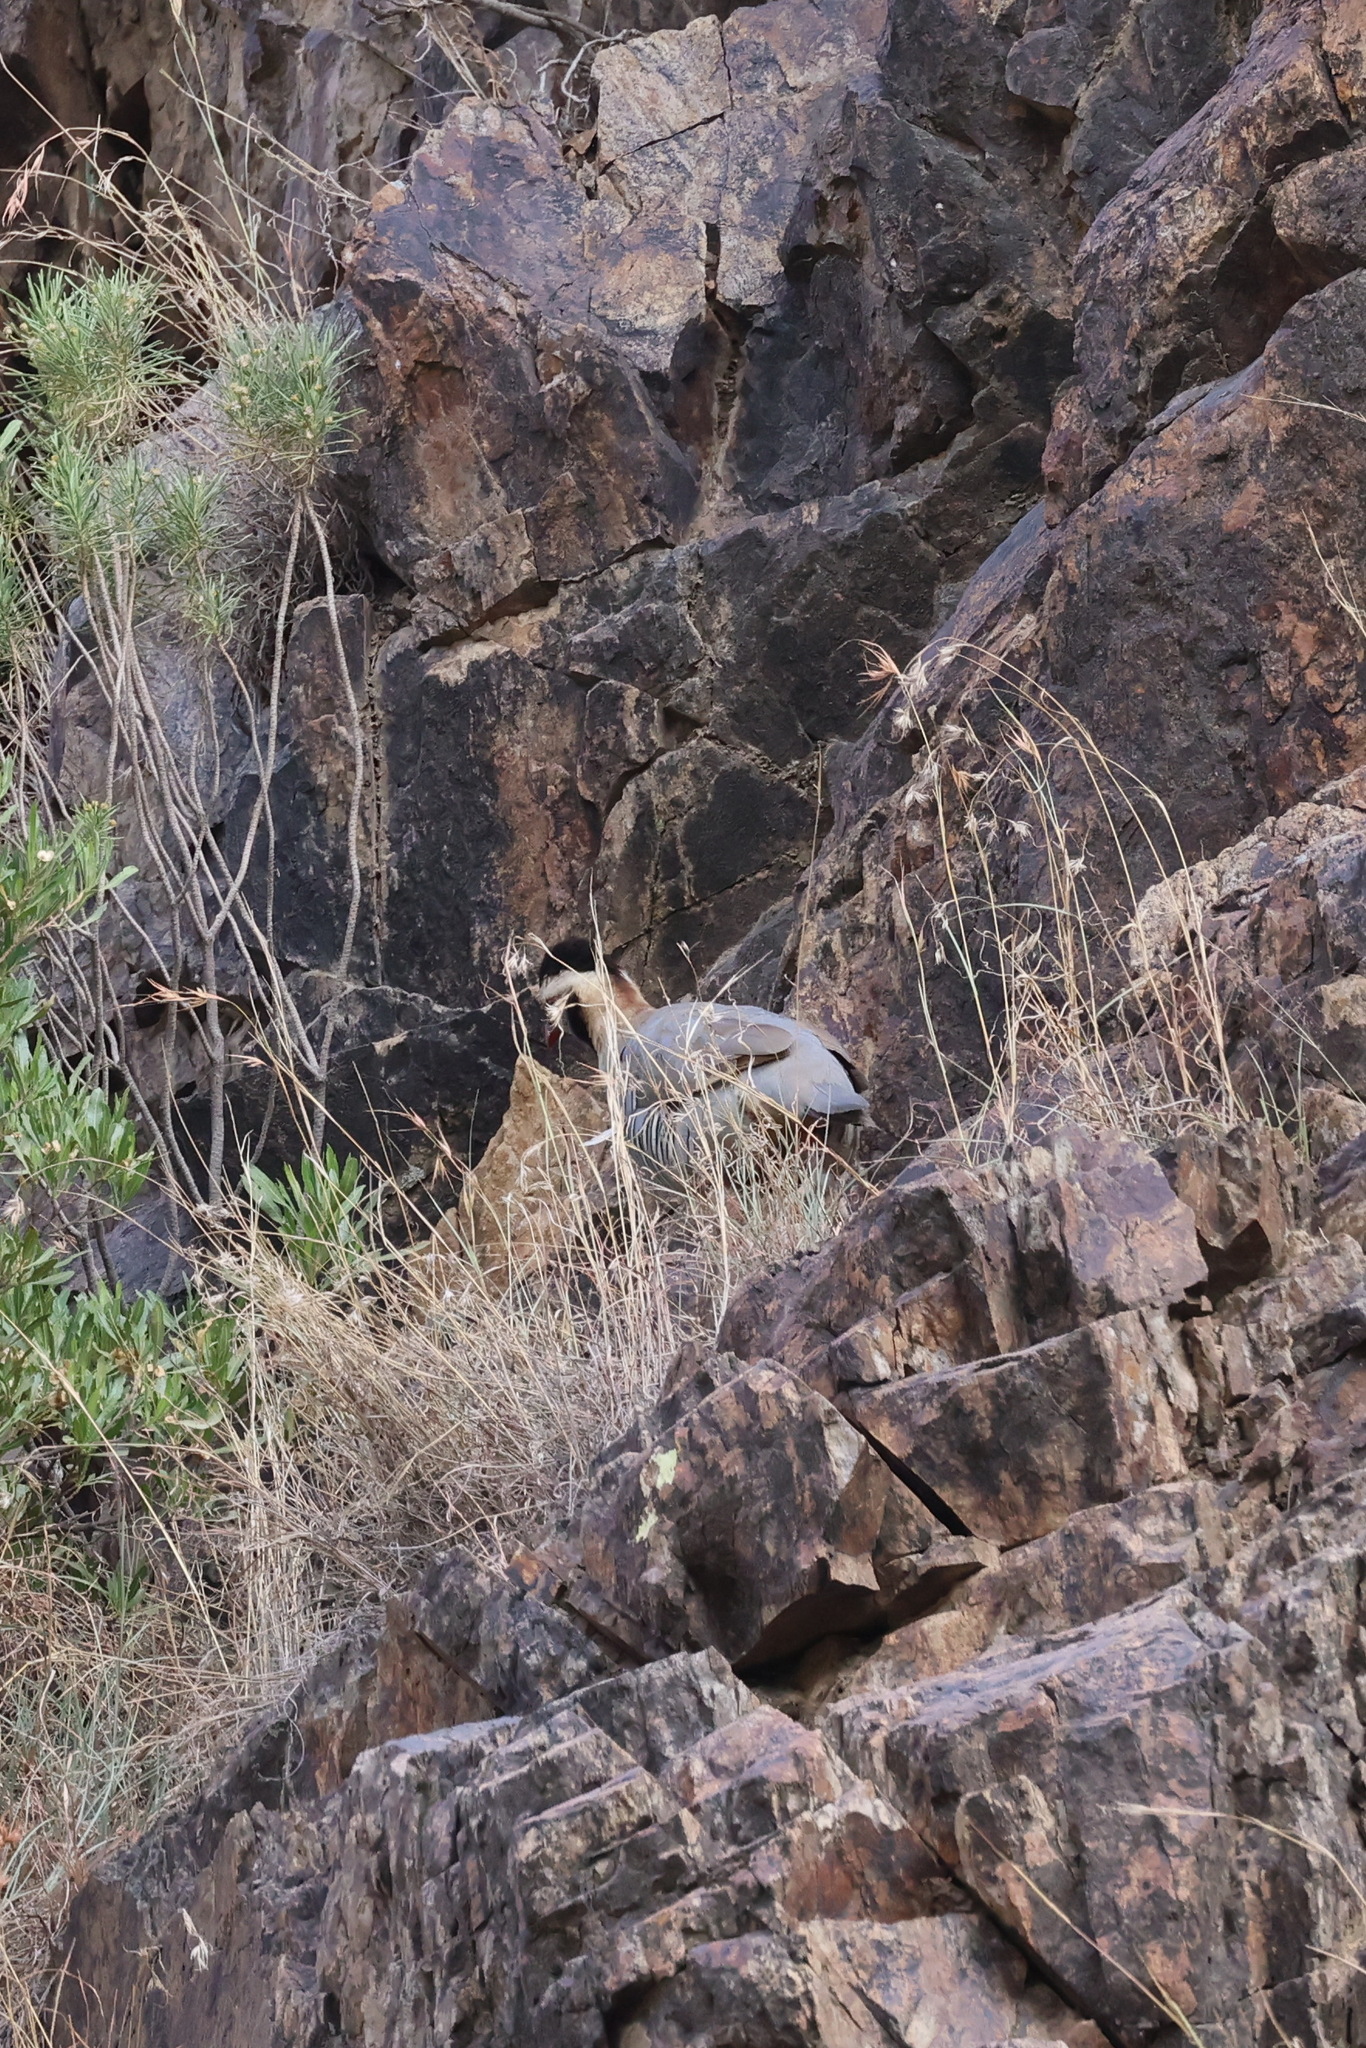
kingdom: Animalia
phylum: Chordata
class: Aves
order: Galliformes
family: Phasianidae
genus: Alectoris
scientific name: Alectoris melanocephala
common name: Arabian partridge
